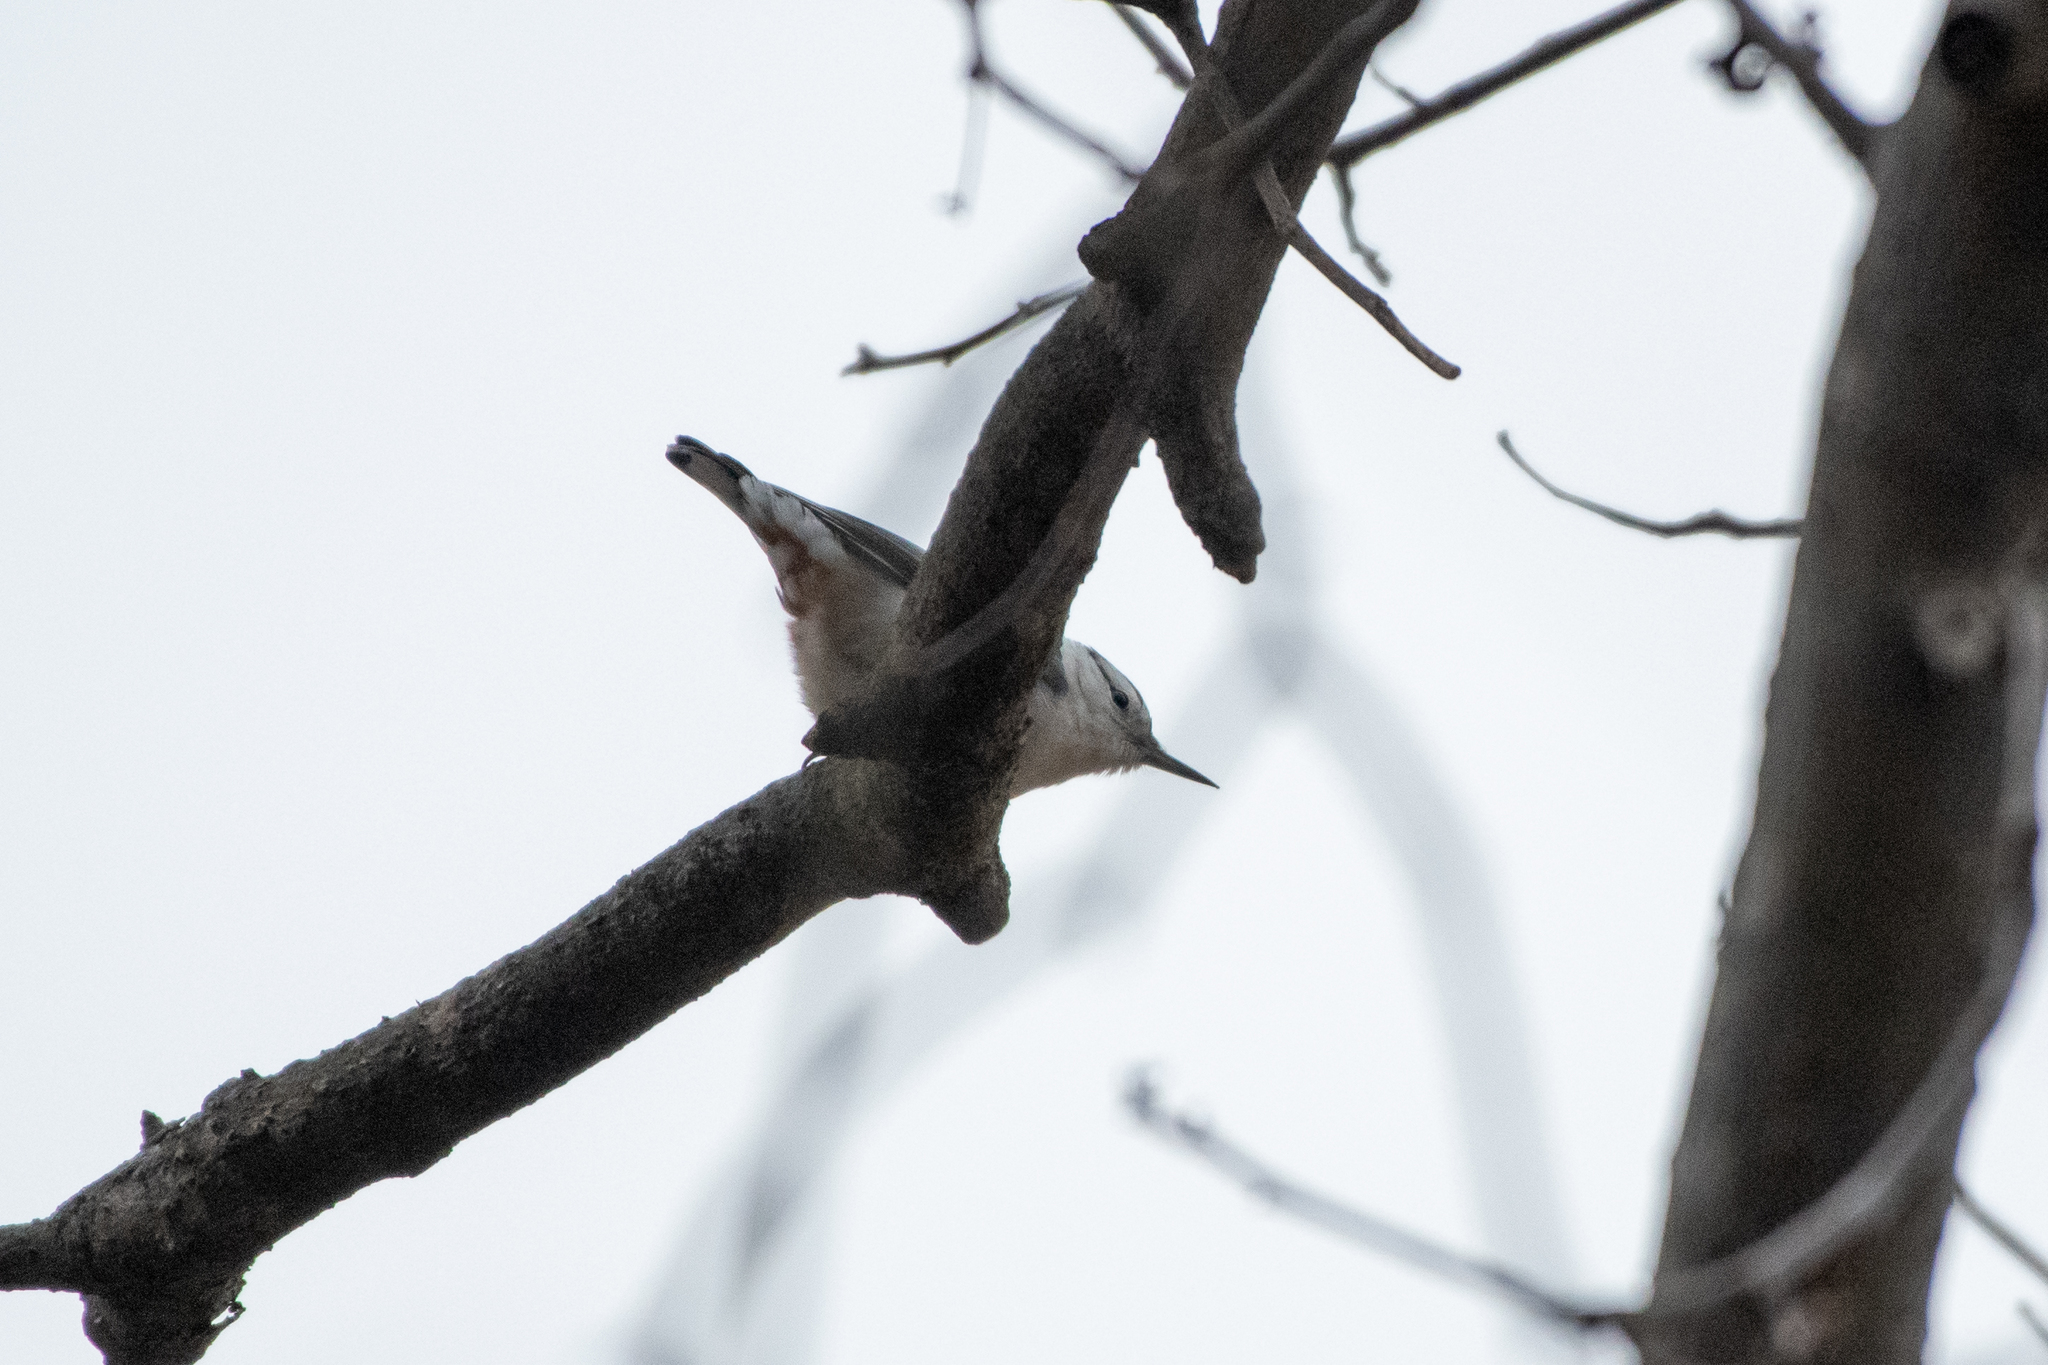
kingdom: Animalia
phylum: Chordata
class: Aves
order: Passeriformes
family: Sittidae
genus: Sitta
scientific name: Sitta carolinensis
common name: White-breasted nuthatch
